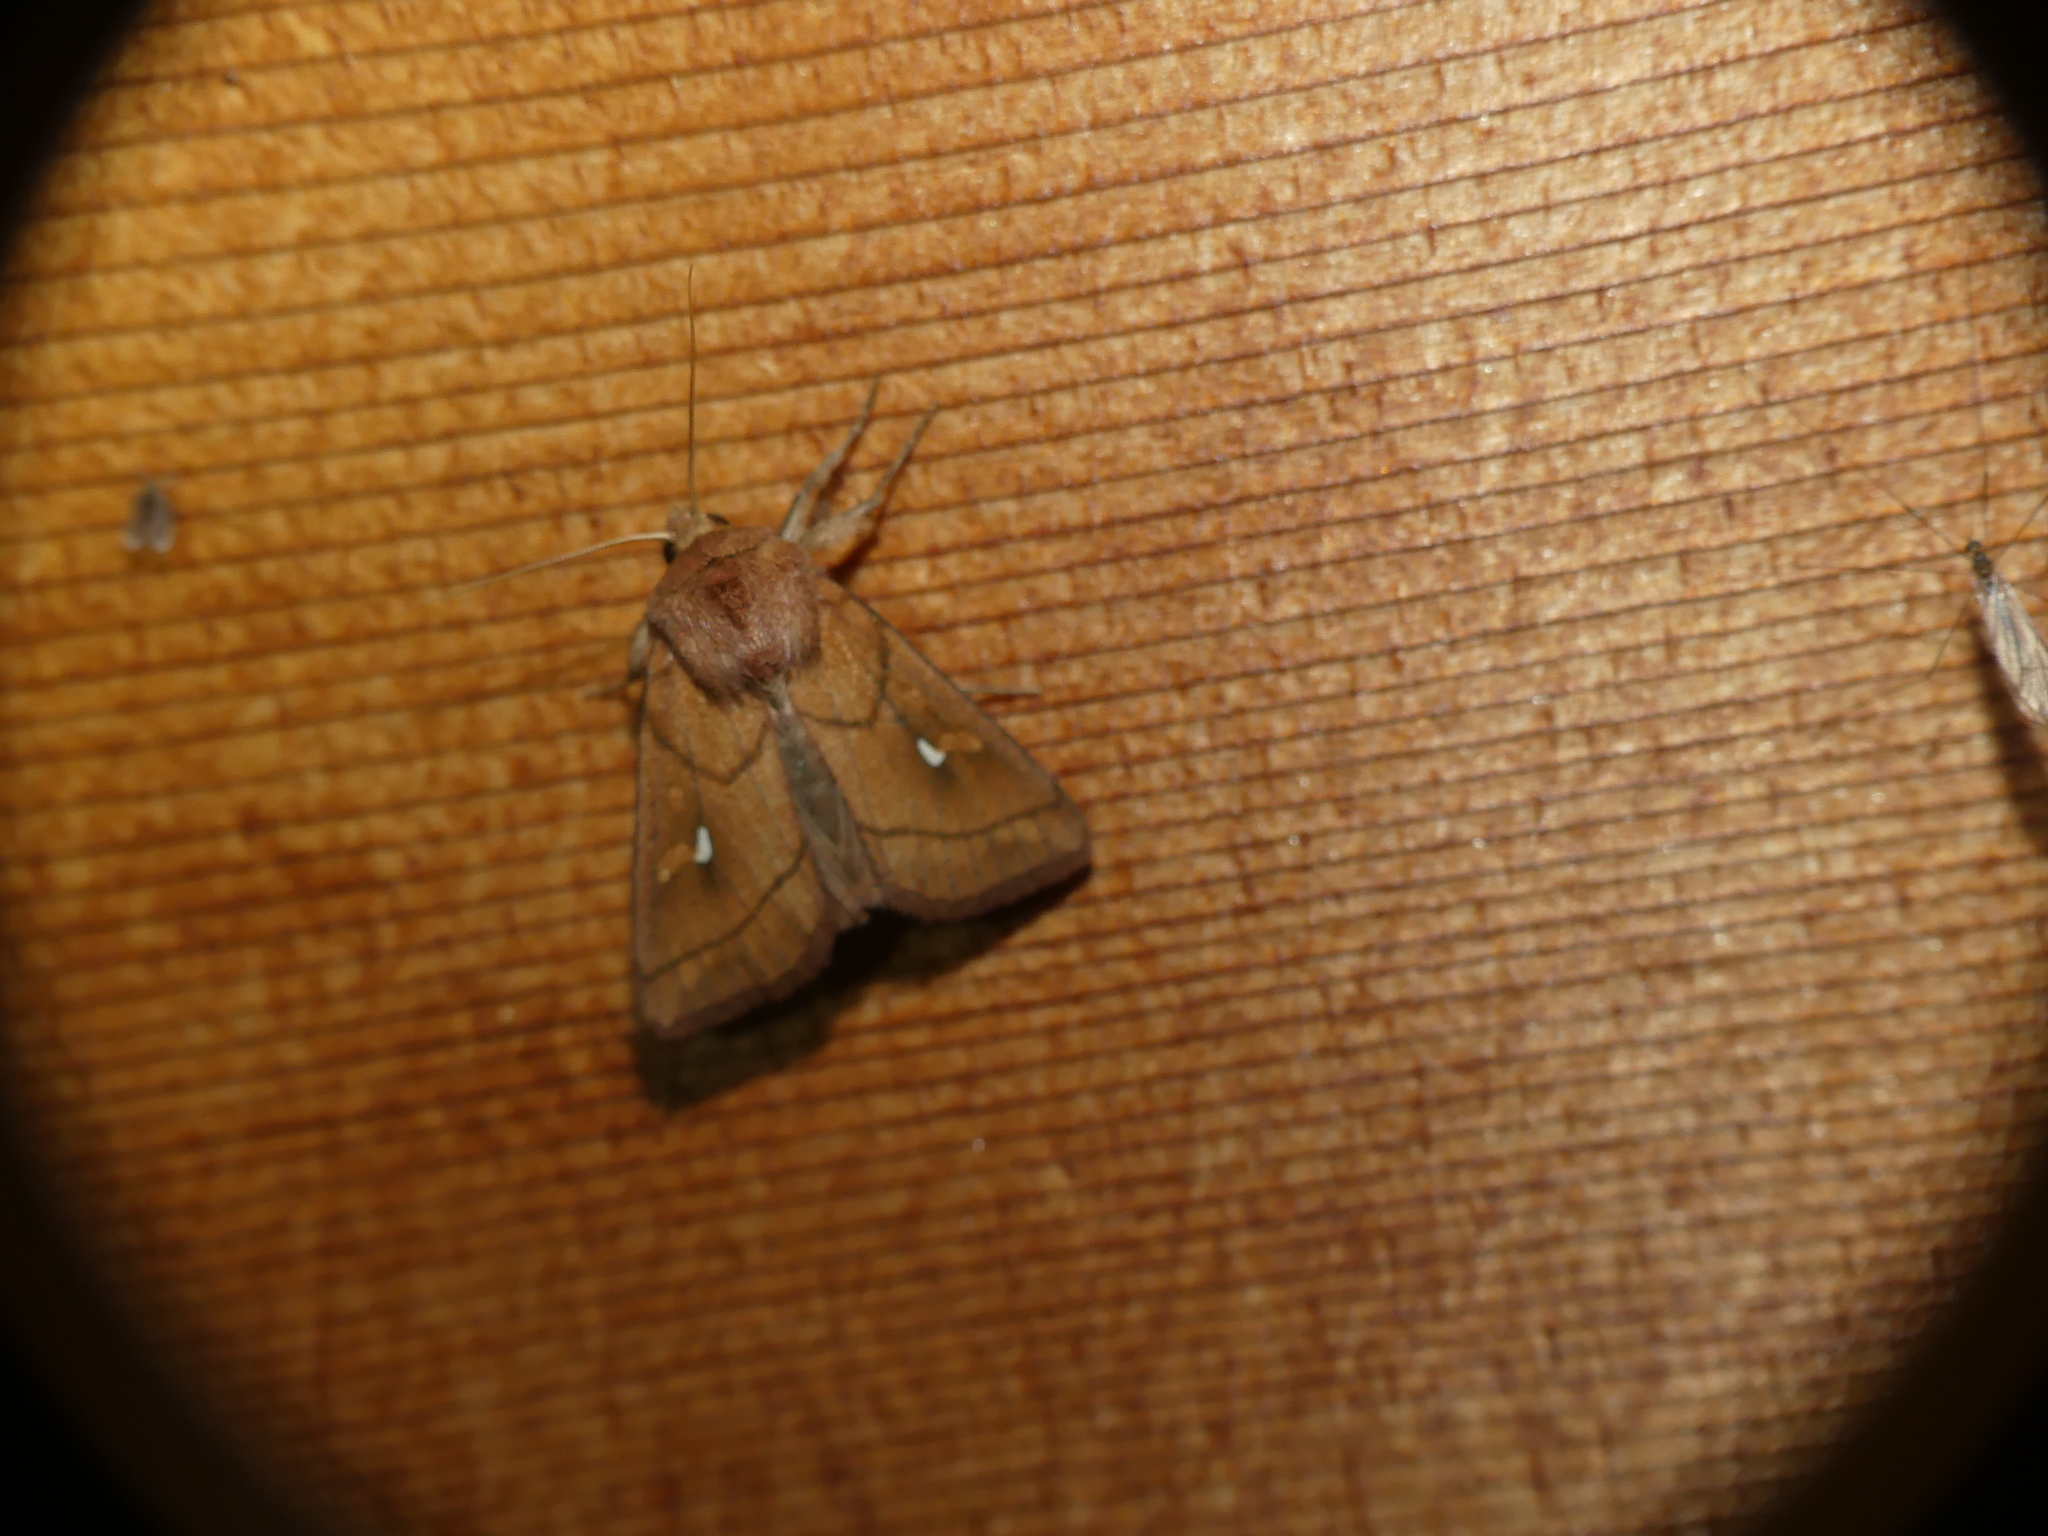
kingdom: Animalia
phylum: Arthropoda
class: Insecta
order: Lepidoptera
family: Noctuidae
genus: Mythimna
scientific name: Mythimna conigera
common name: Brown-line bright-eye
